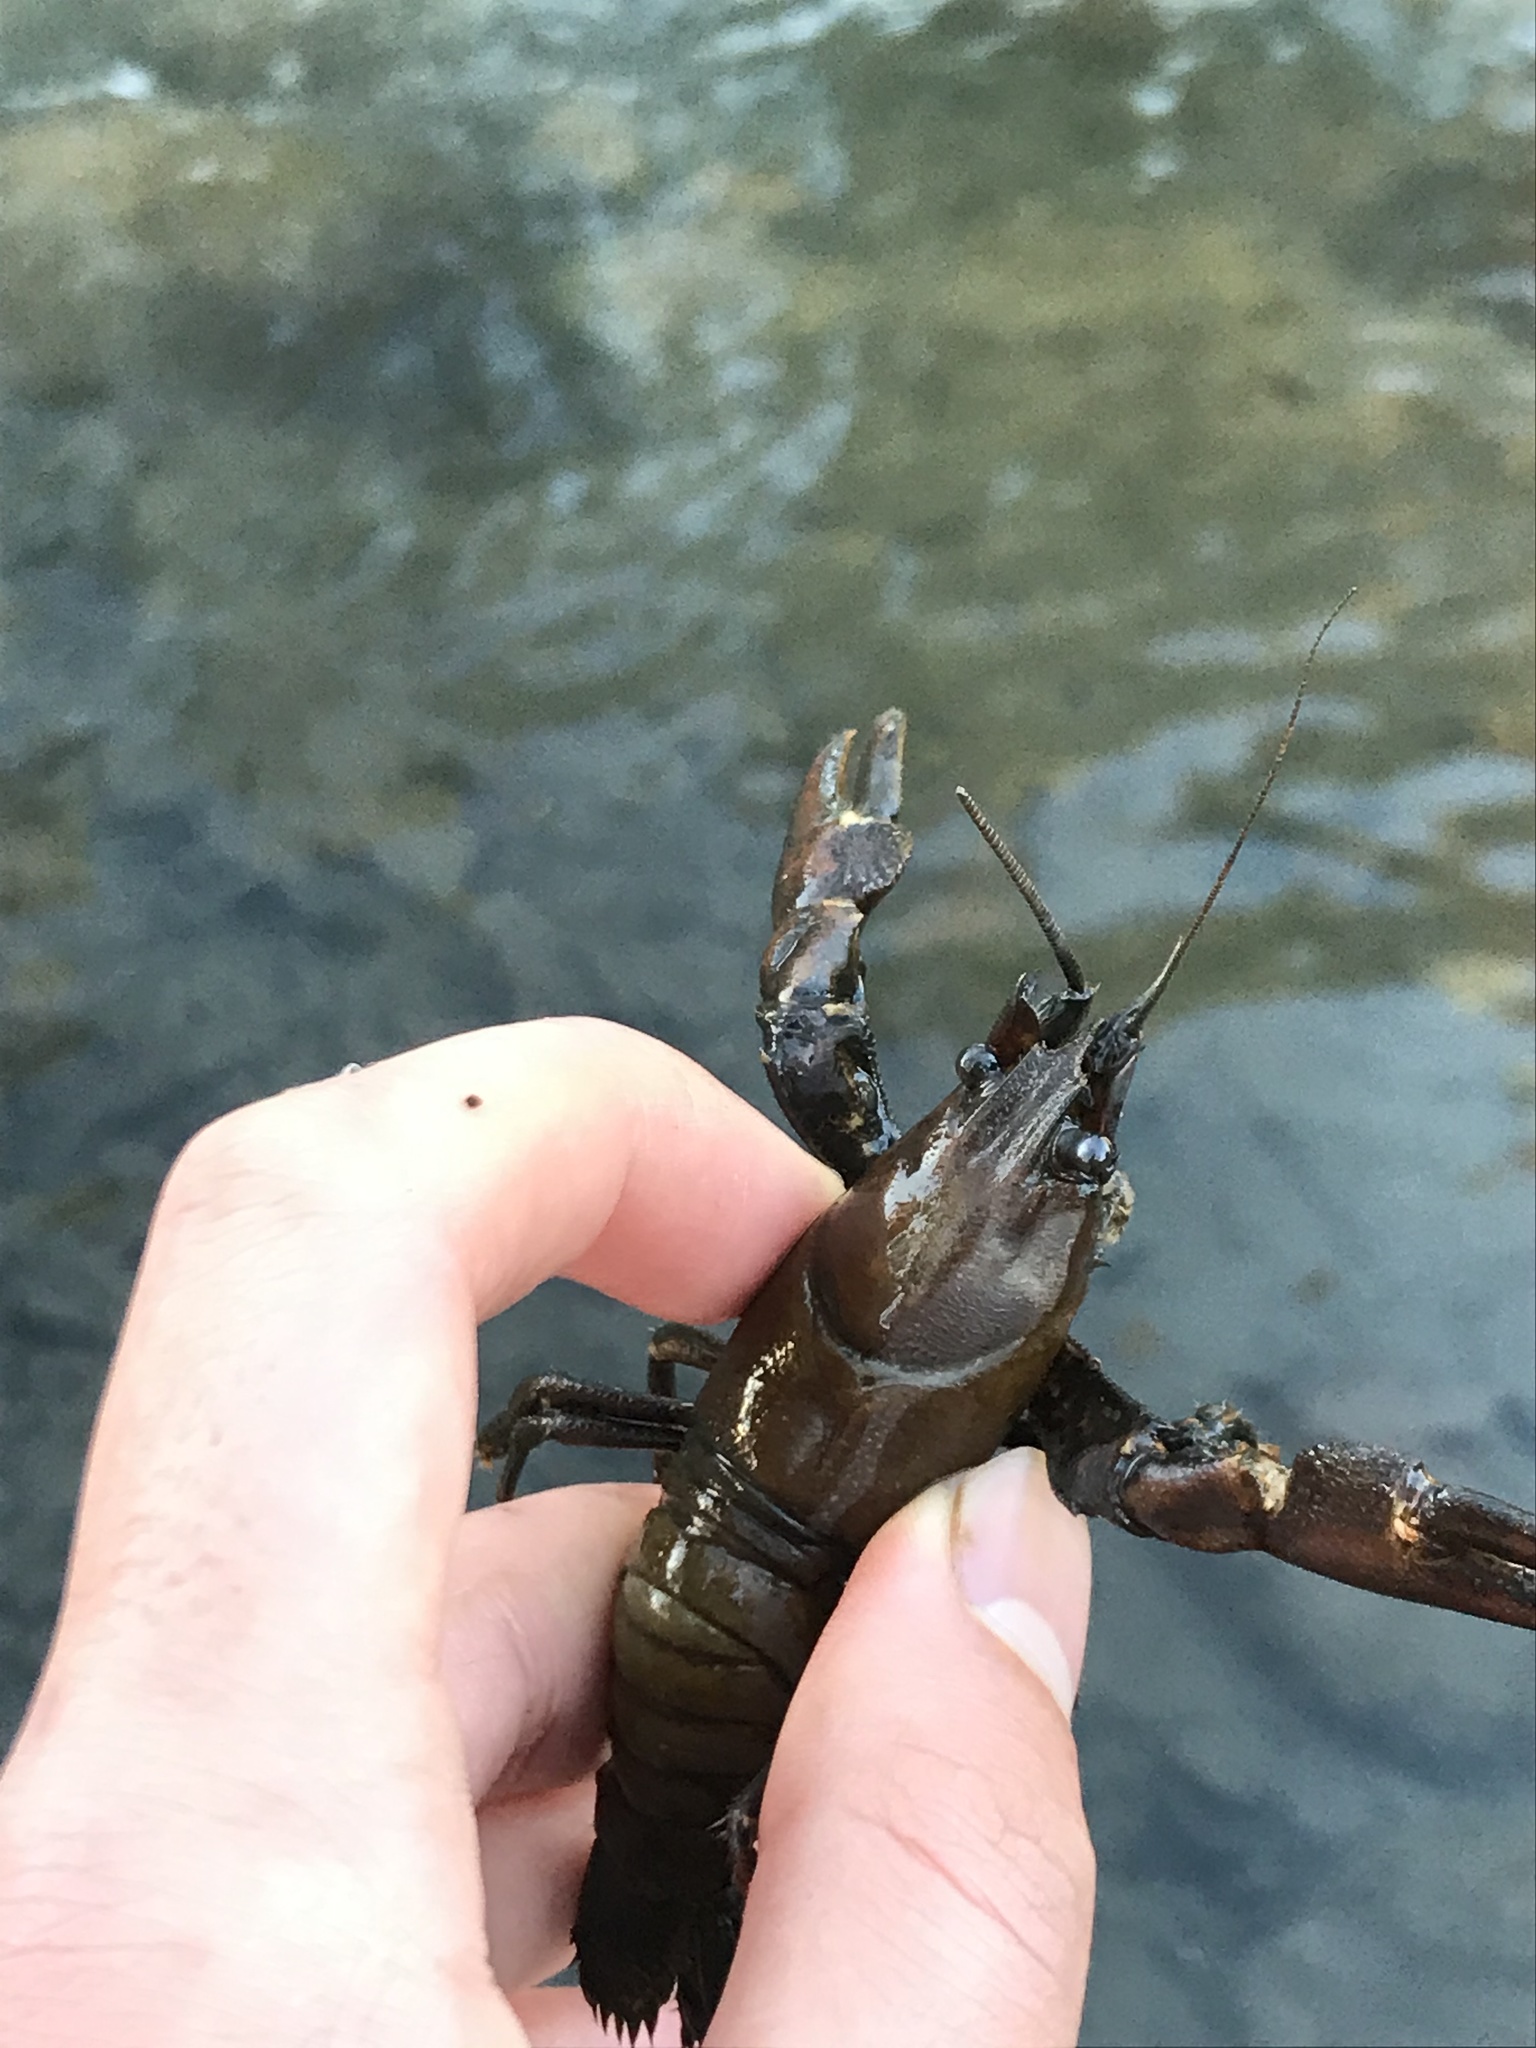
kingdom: Animalia
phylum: Arthropoda
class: Malacostraca
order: Decapoda
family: Astacidae
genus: Pacifastacus
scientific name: Pacifastacus leniusculus
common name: Signal crayfish
